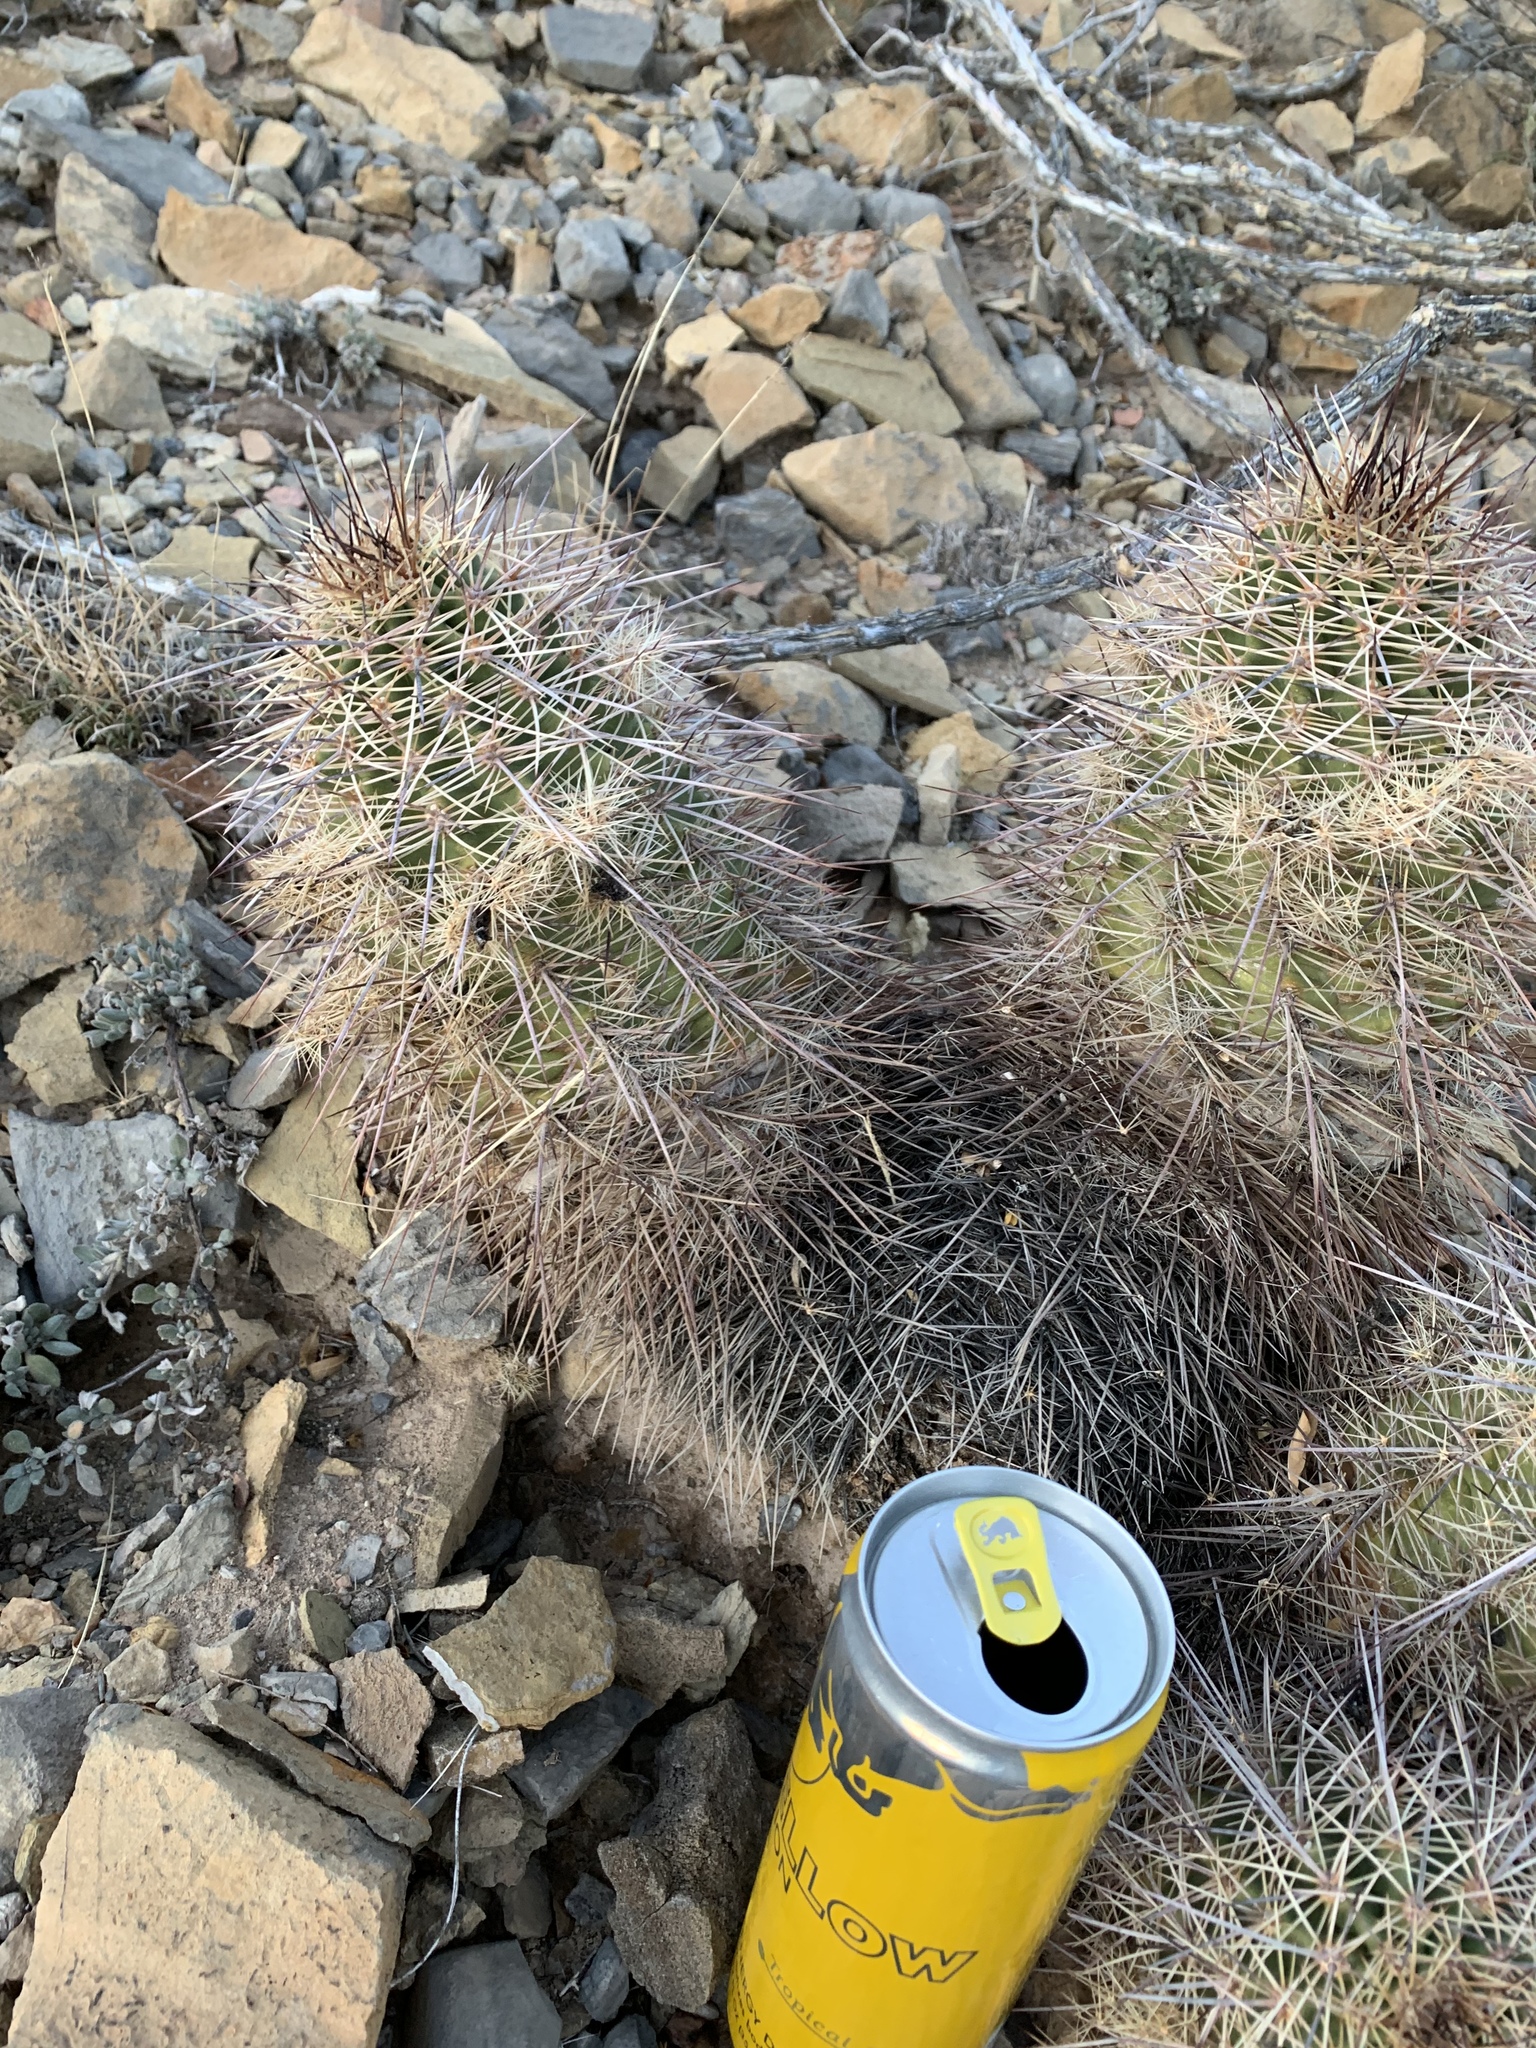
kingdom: Plantae
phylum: Tracheophyta
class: Magnoliopsida
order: Caryophyllales
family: Cactaceae
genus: Echinocereus
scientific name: Echinocereus coccineus
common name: Scarlet hedgehog cactus
